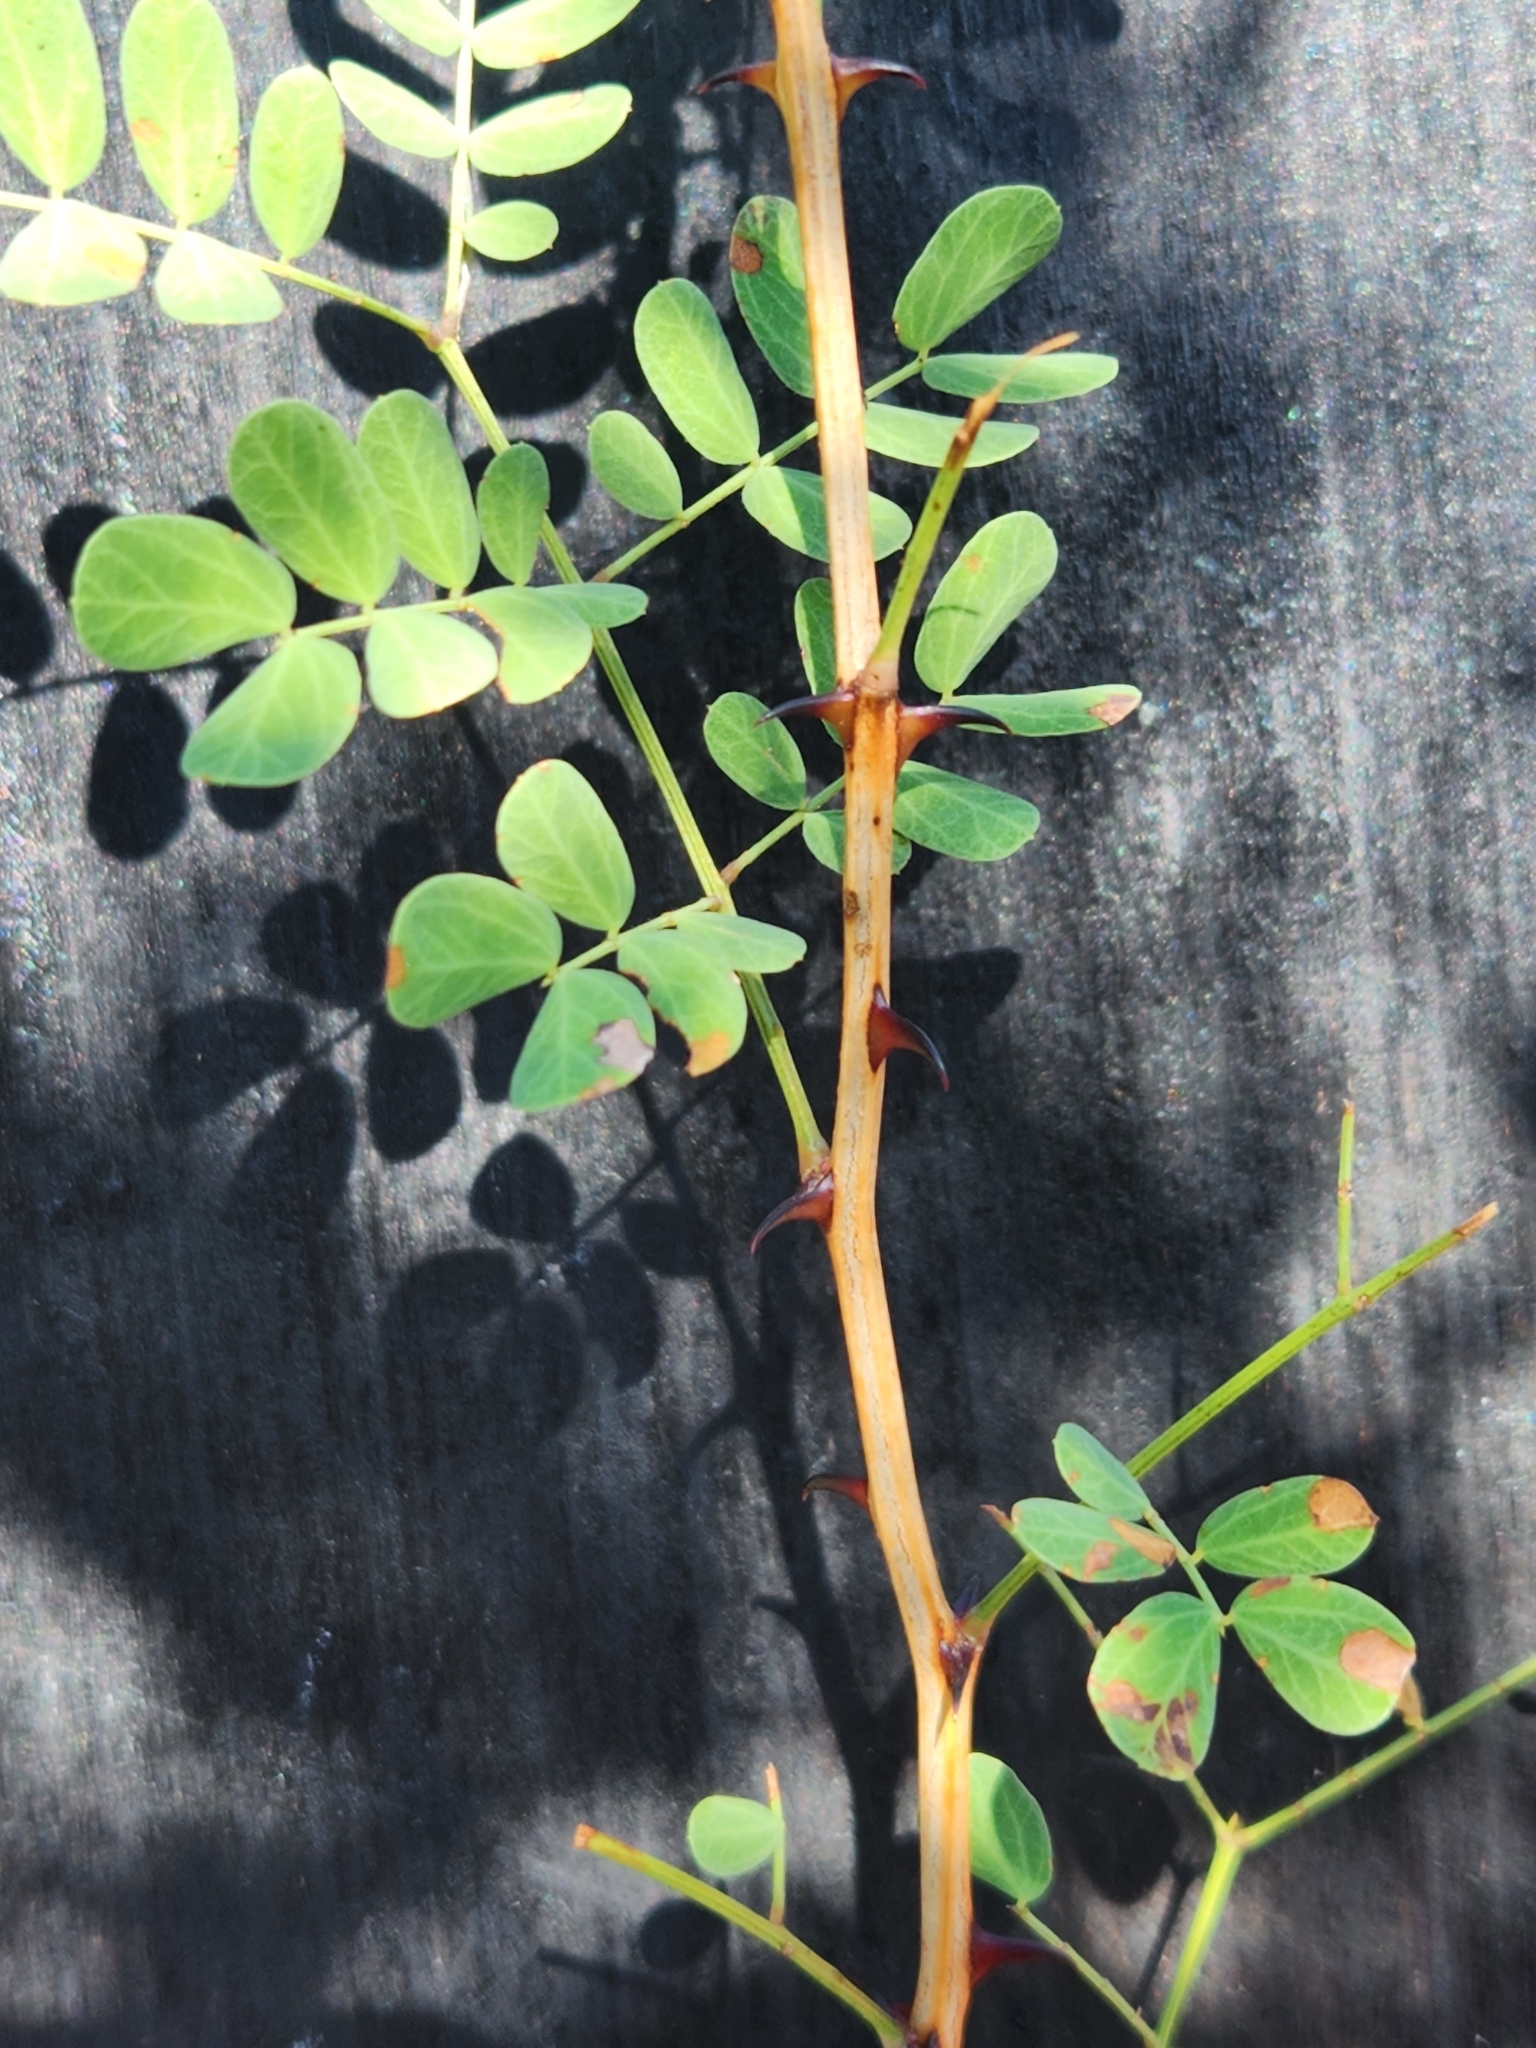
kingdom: Plantae
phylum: Tracheophyta
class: Magnoliopsida
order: Fabales
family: Fabaceae
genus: Senegalia
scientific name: Senegalia roemeriana
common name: Roemer's acacia
